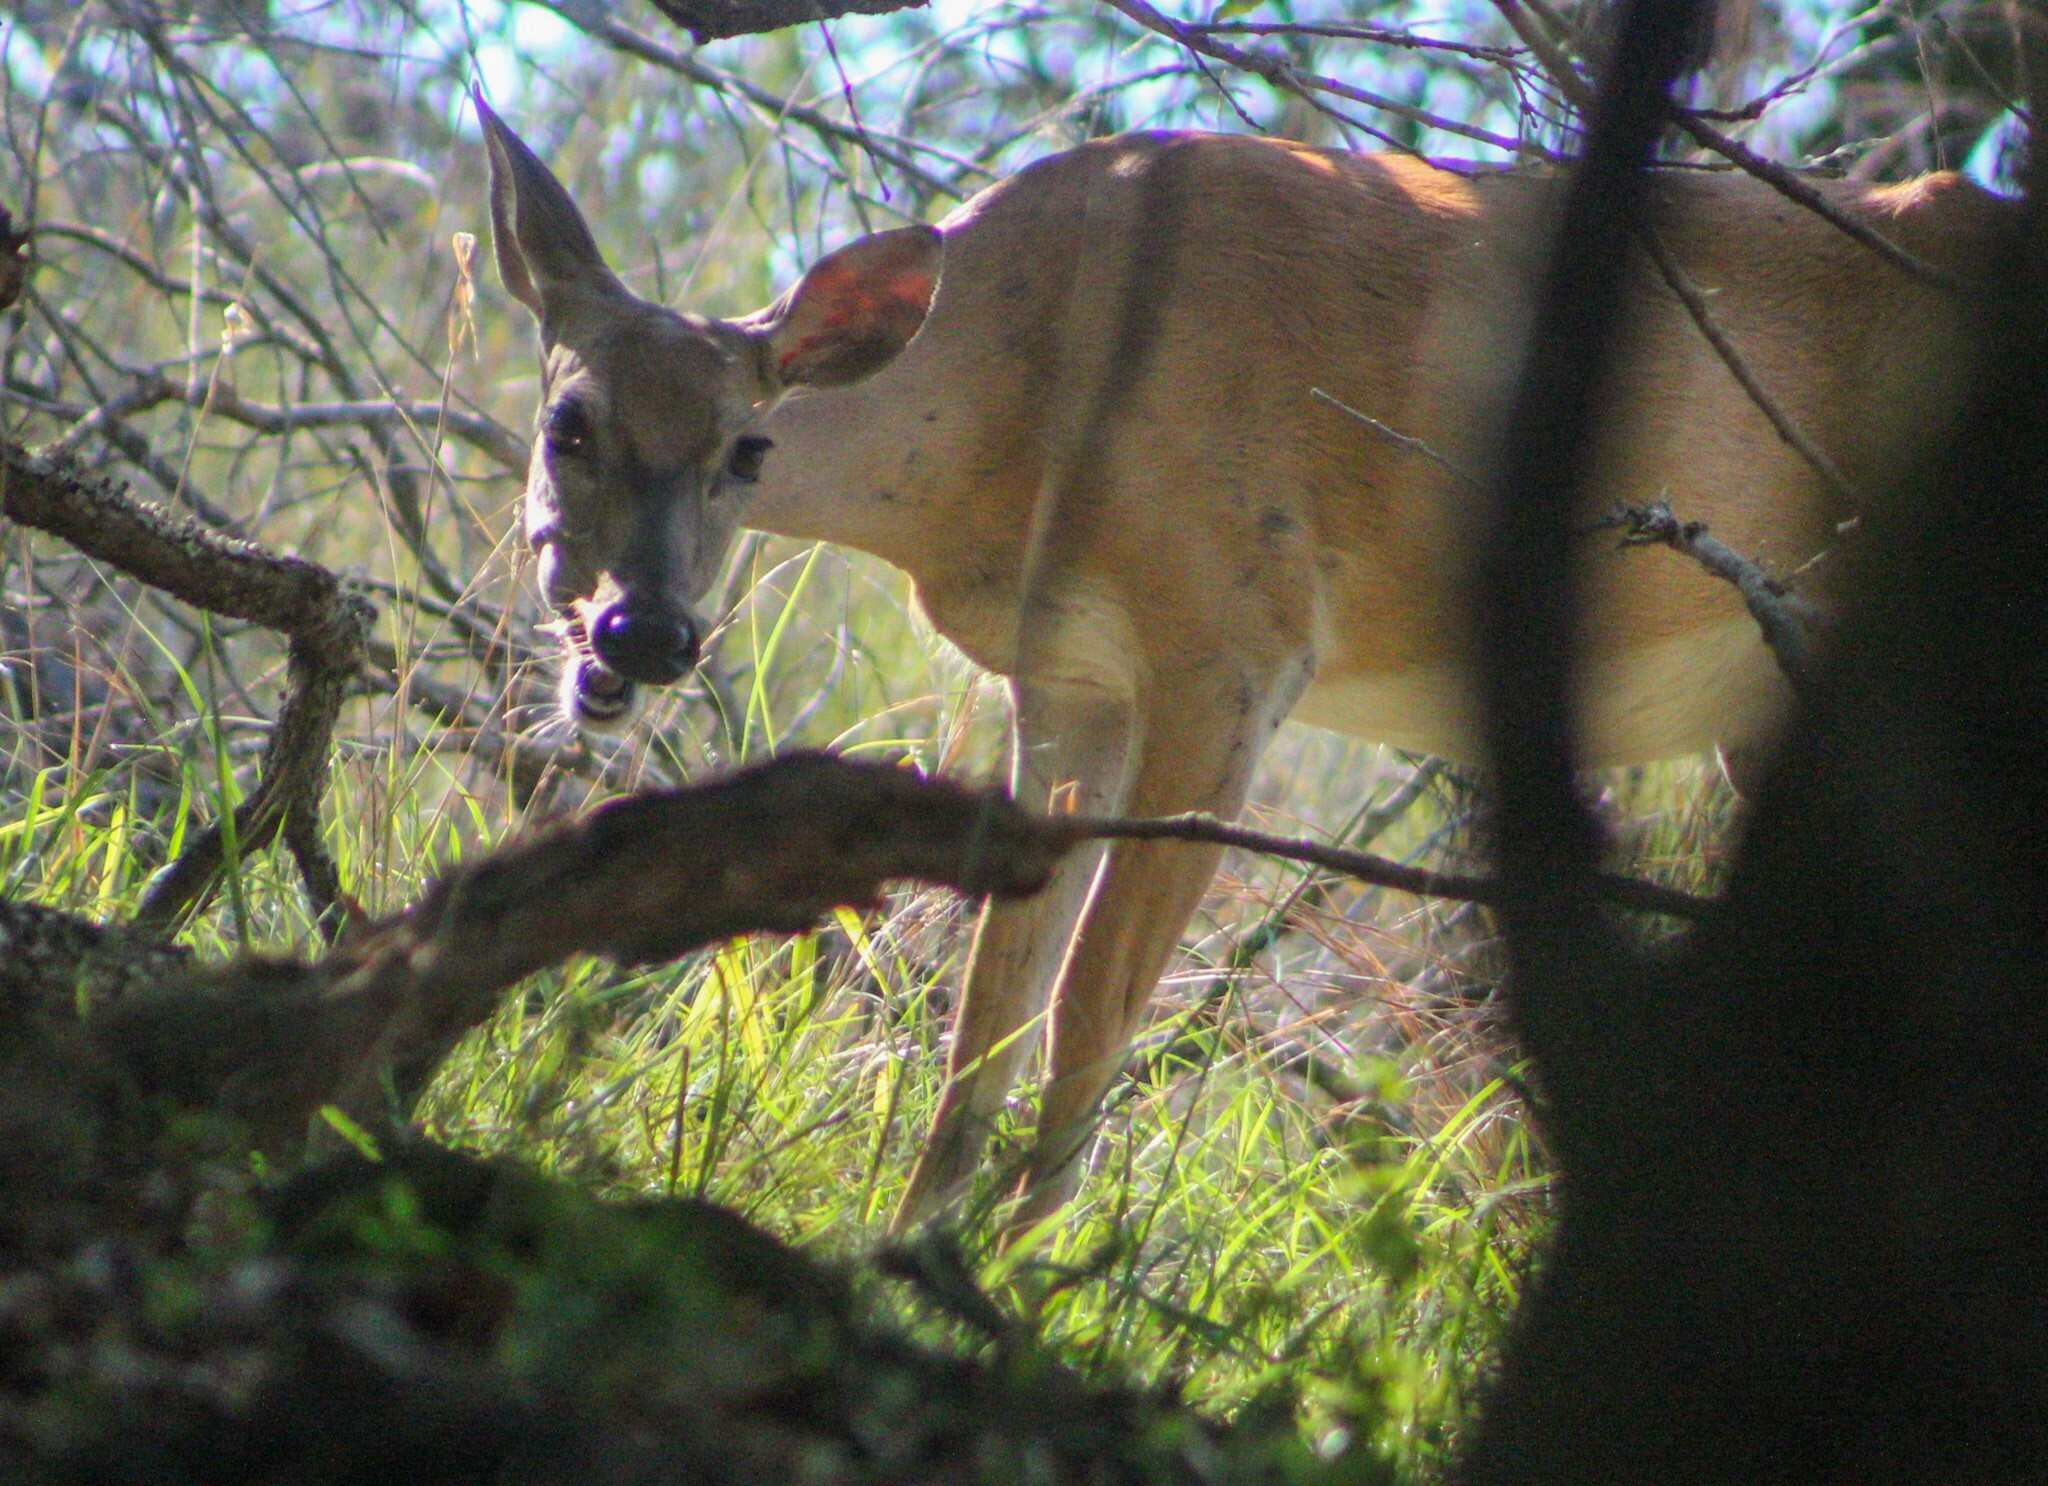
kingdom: Animalia
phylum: Chordata
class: Mammalia
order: Artiodactyla
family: Cervidae
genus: Odocoileus
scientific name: Odocoileus virginianus
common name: White-tailed deer
